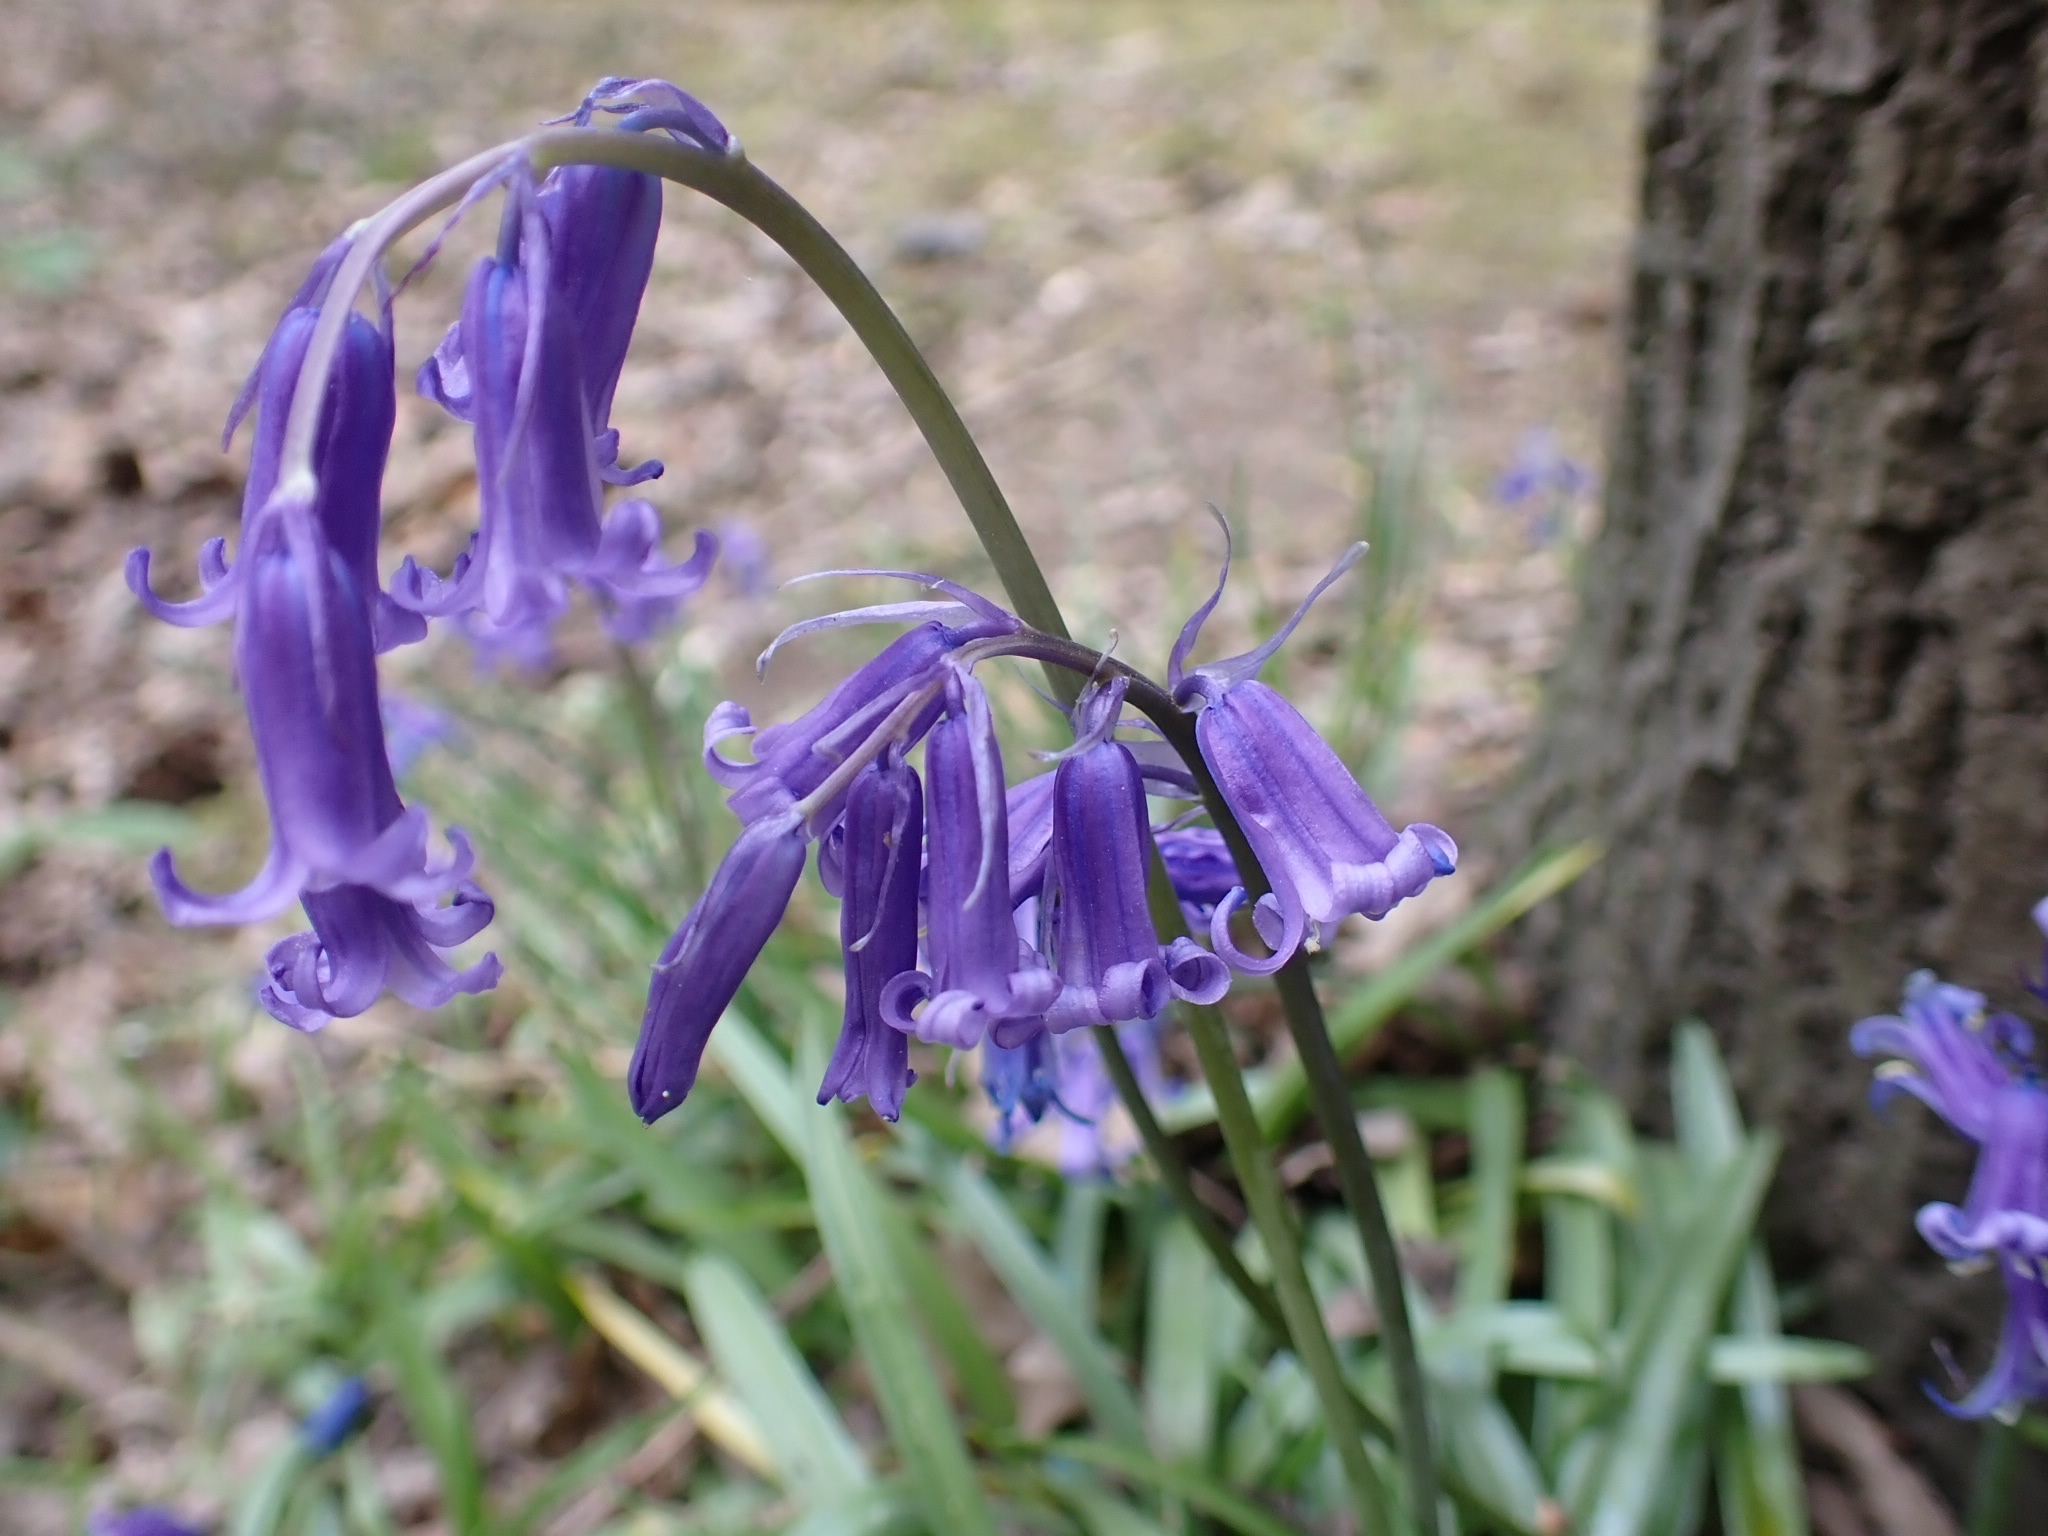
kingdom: Plantae
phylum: Tracheophyta
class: Liliopsida
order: Asparagales
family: Asparagaceae
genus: Hyacinthoides
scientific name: Hyacinthoides non-scripta
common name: Bluebell
